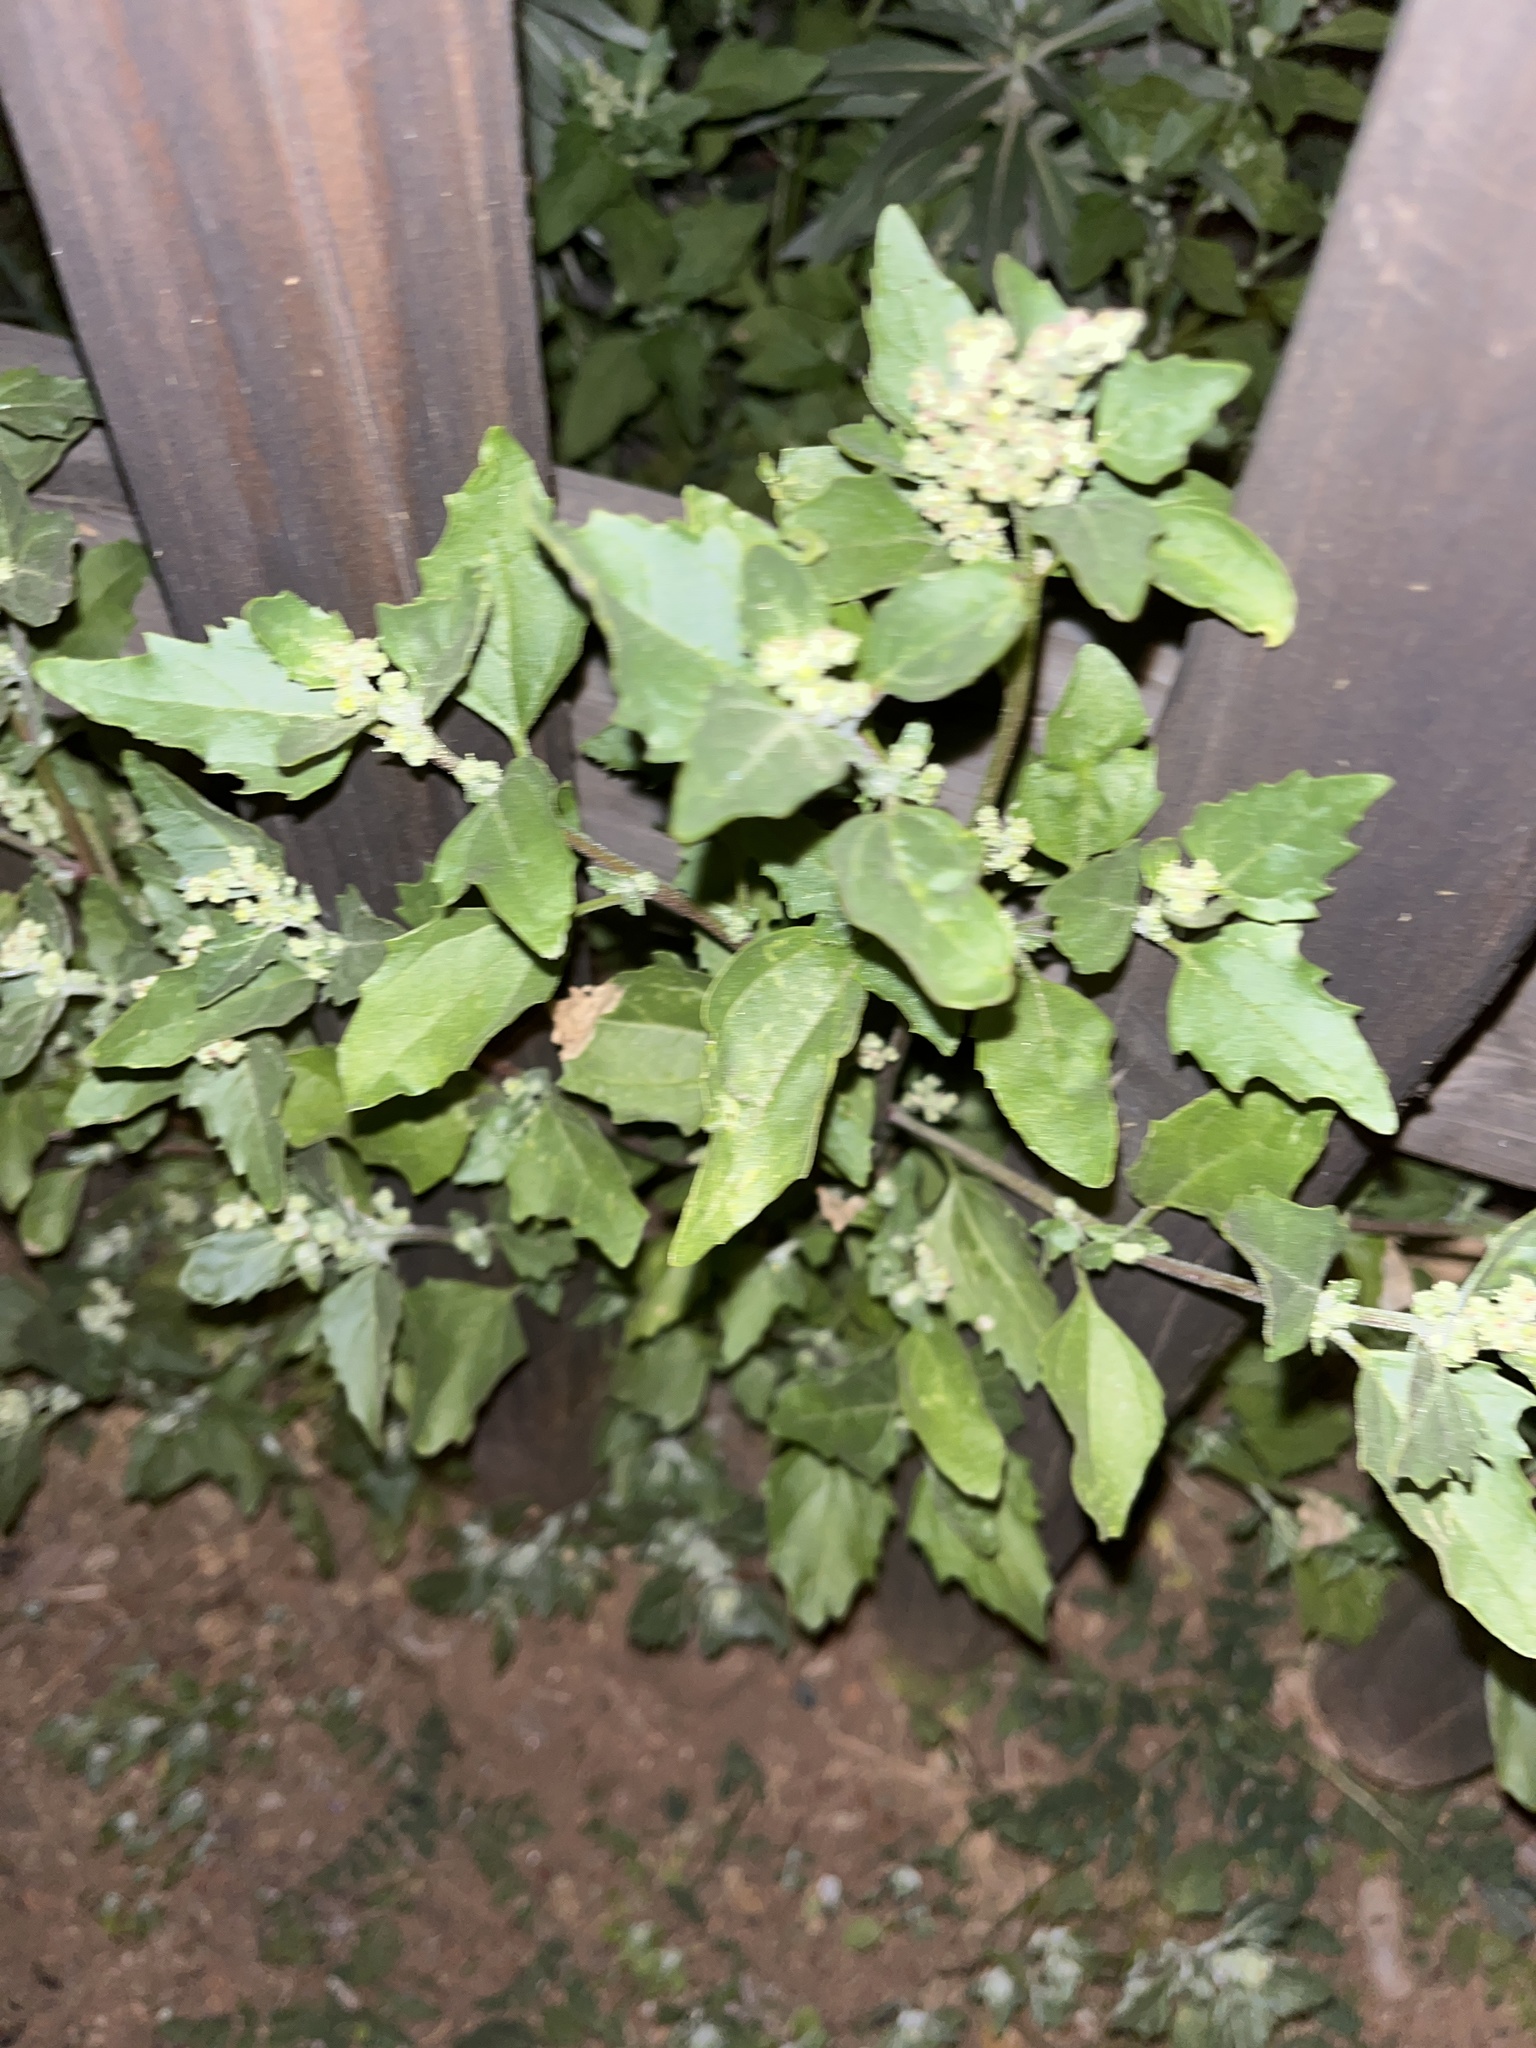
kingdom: Plantae
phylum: Tracheophyta
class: Magnoliopsida
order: Caryophyllales
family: Amaranthaceae
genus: Chenopodiastrum
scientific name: Chenopodiastrum murale
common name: Sowbane
